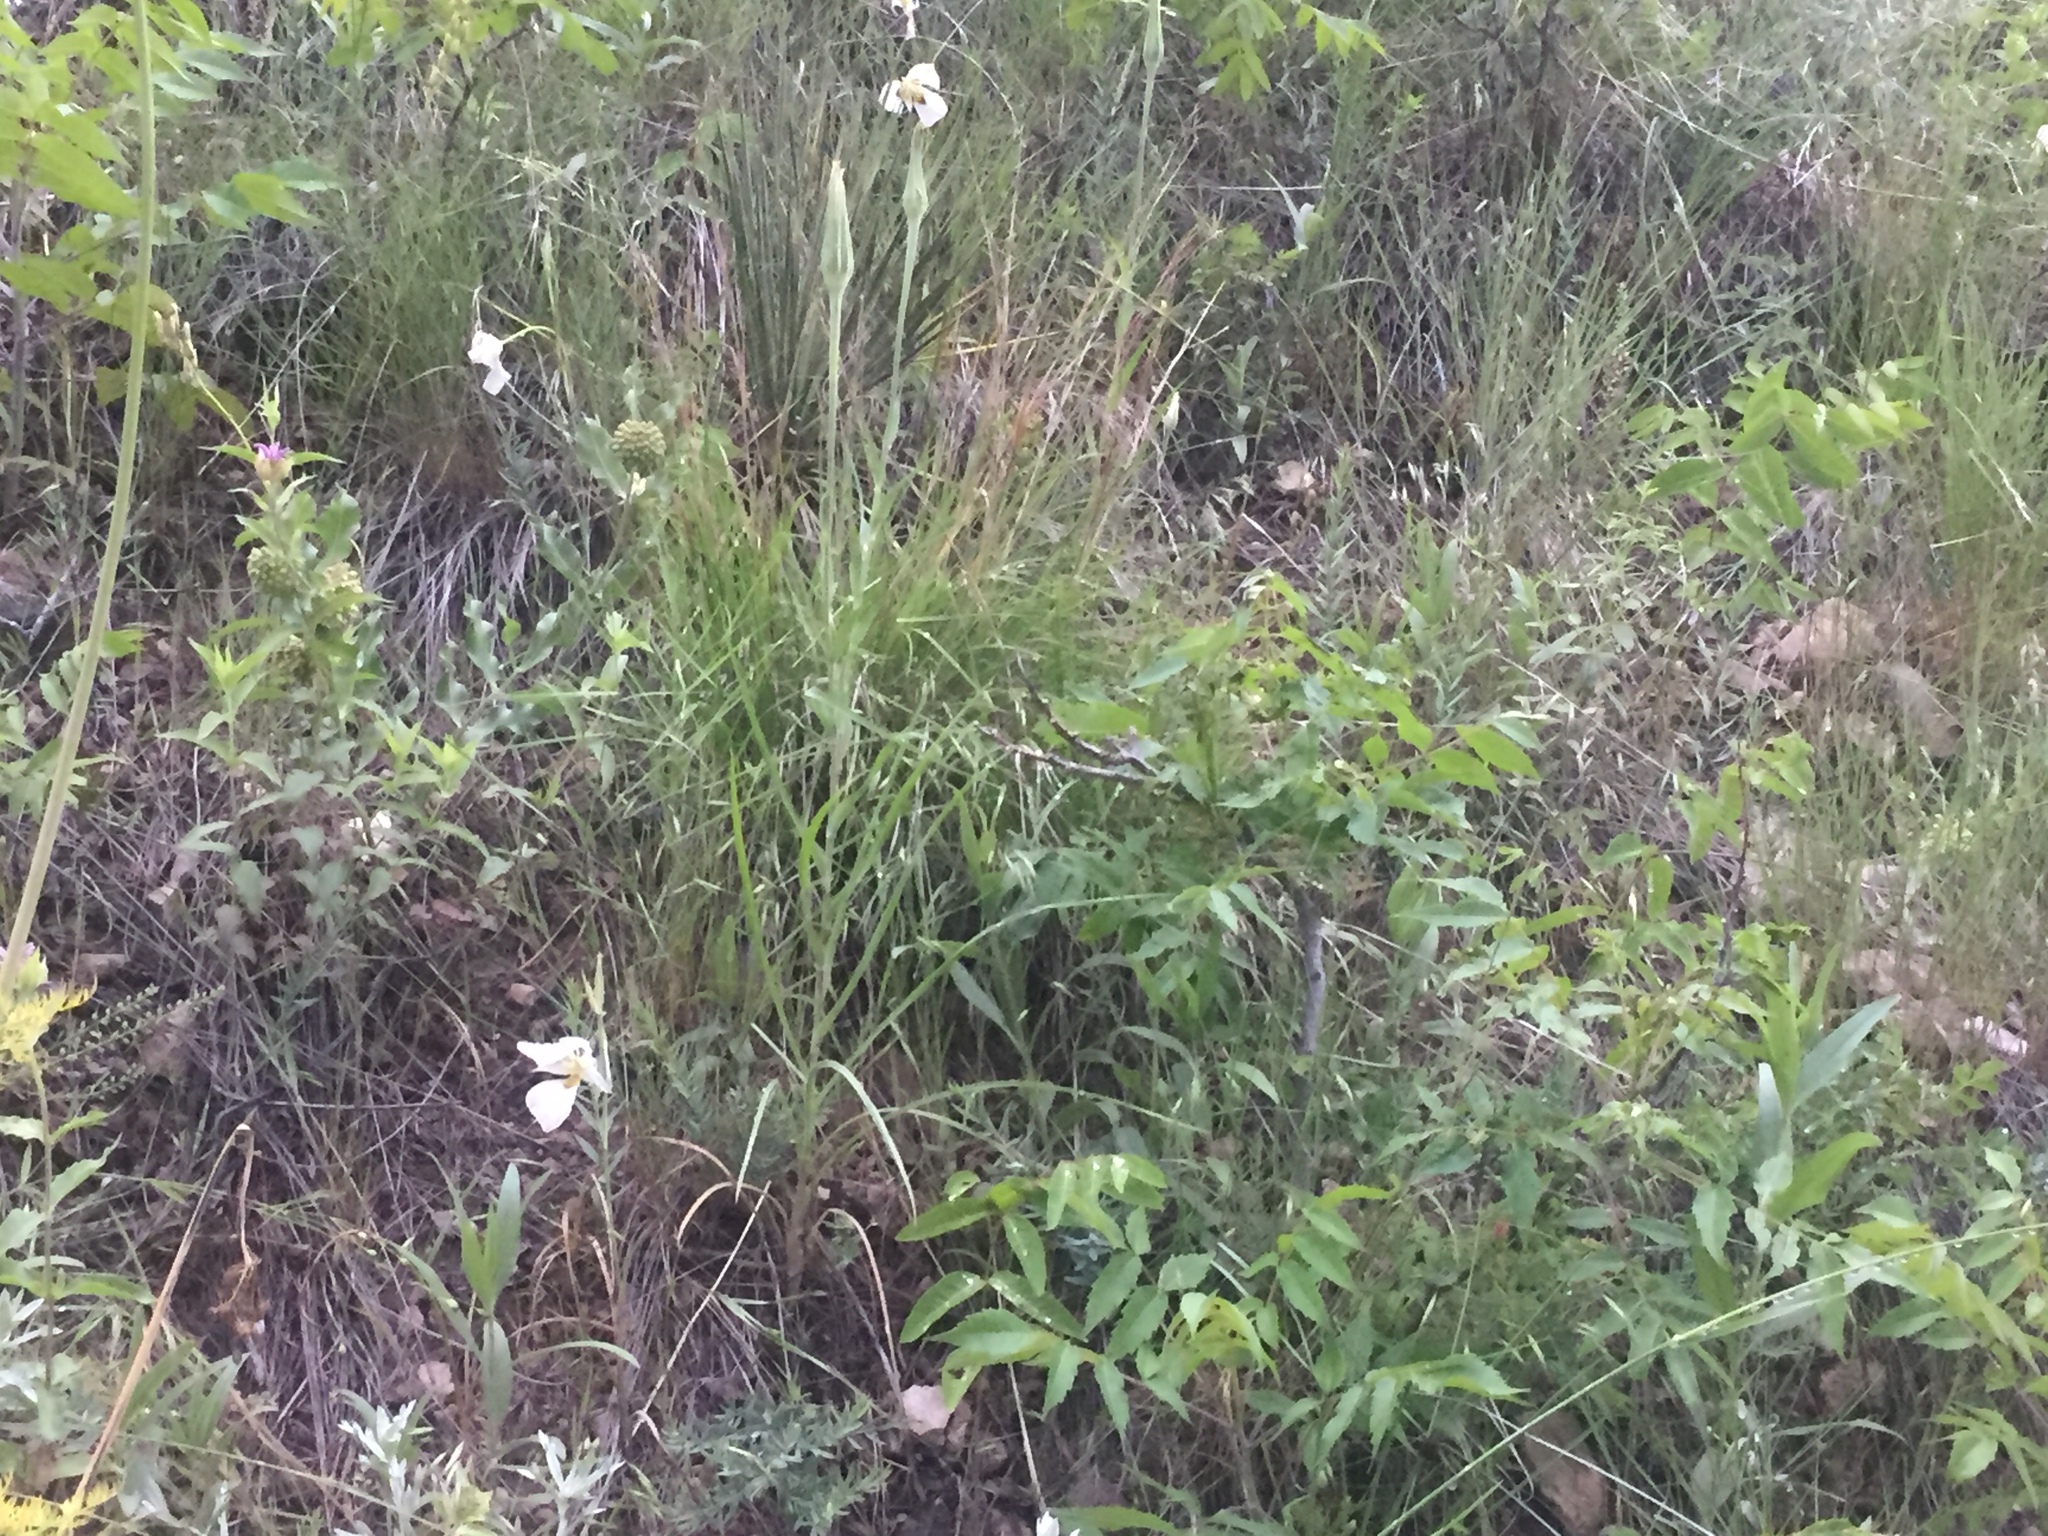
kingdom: Plantae
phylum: Tracheophyta
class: Liliopsida
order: Liliales
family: Liliaceae
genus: Calochortus
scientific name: Calochortus nuttallii
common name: Sego-lily
